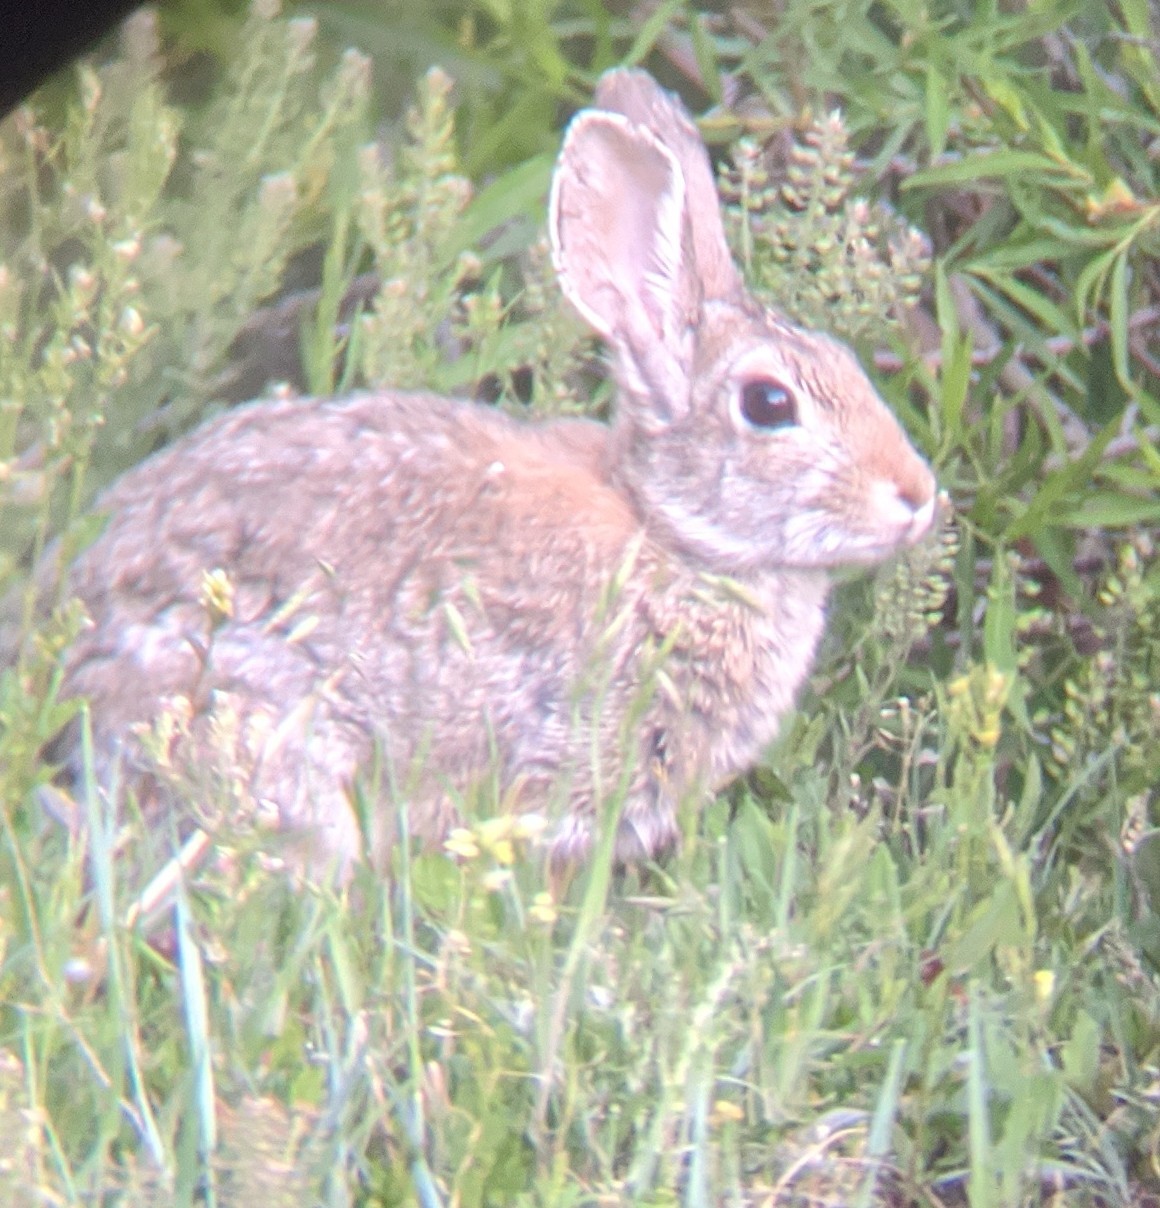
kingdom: Animalia
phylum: Chordata
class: Mammalia
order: Lagomorpha
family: Leporidae
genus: Sylvilagus
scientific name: Sylvilagus nuttallii
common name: Mountain cottontail
